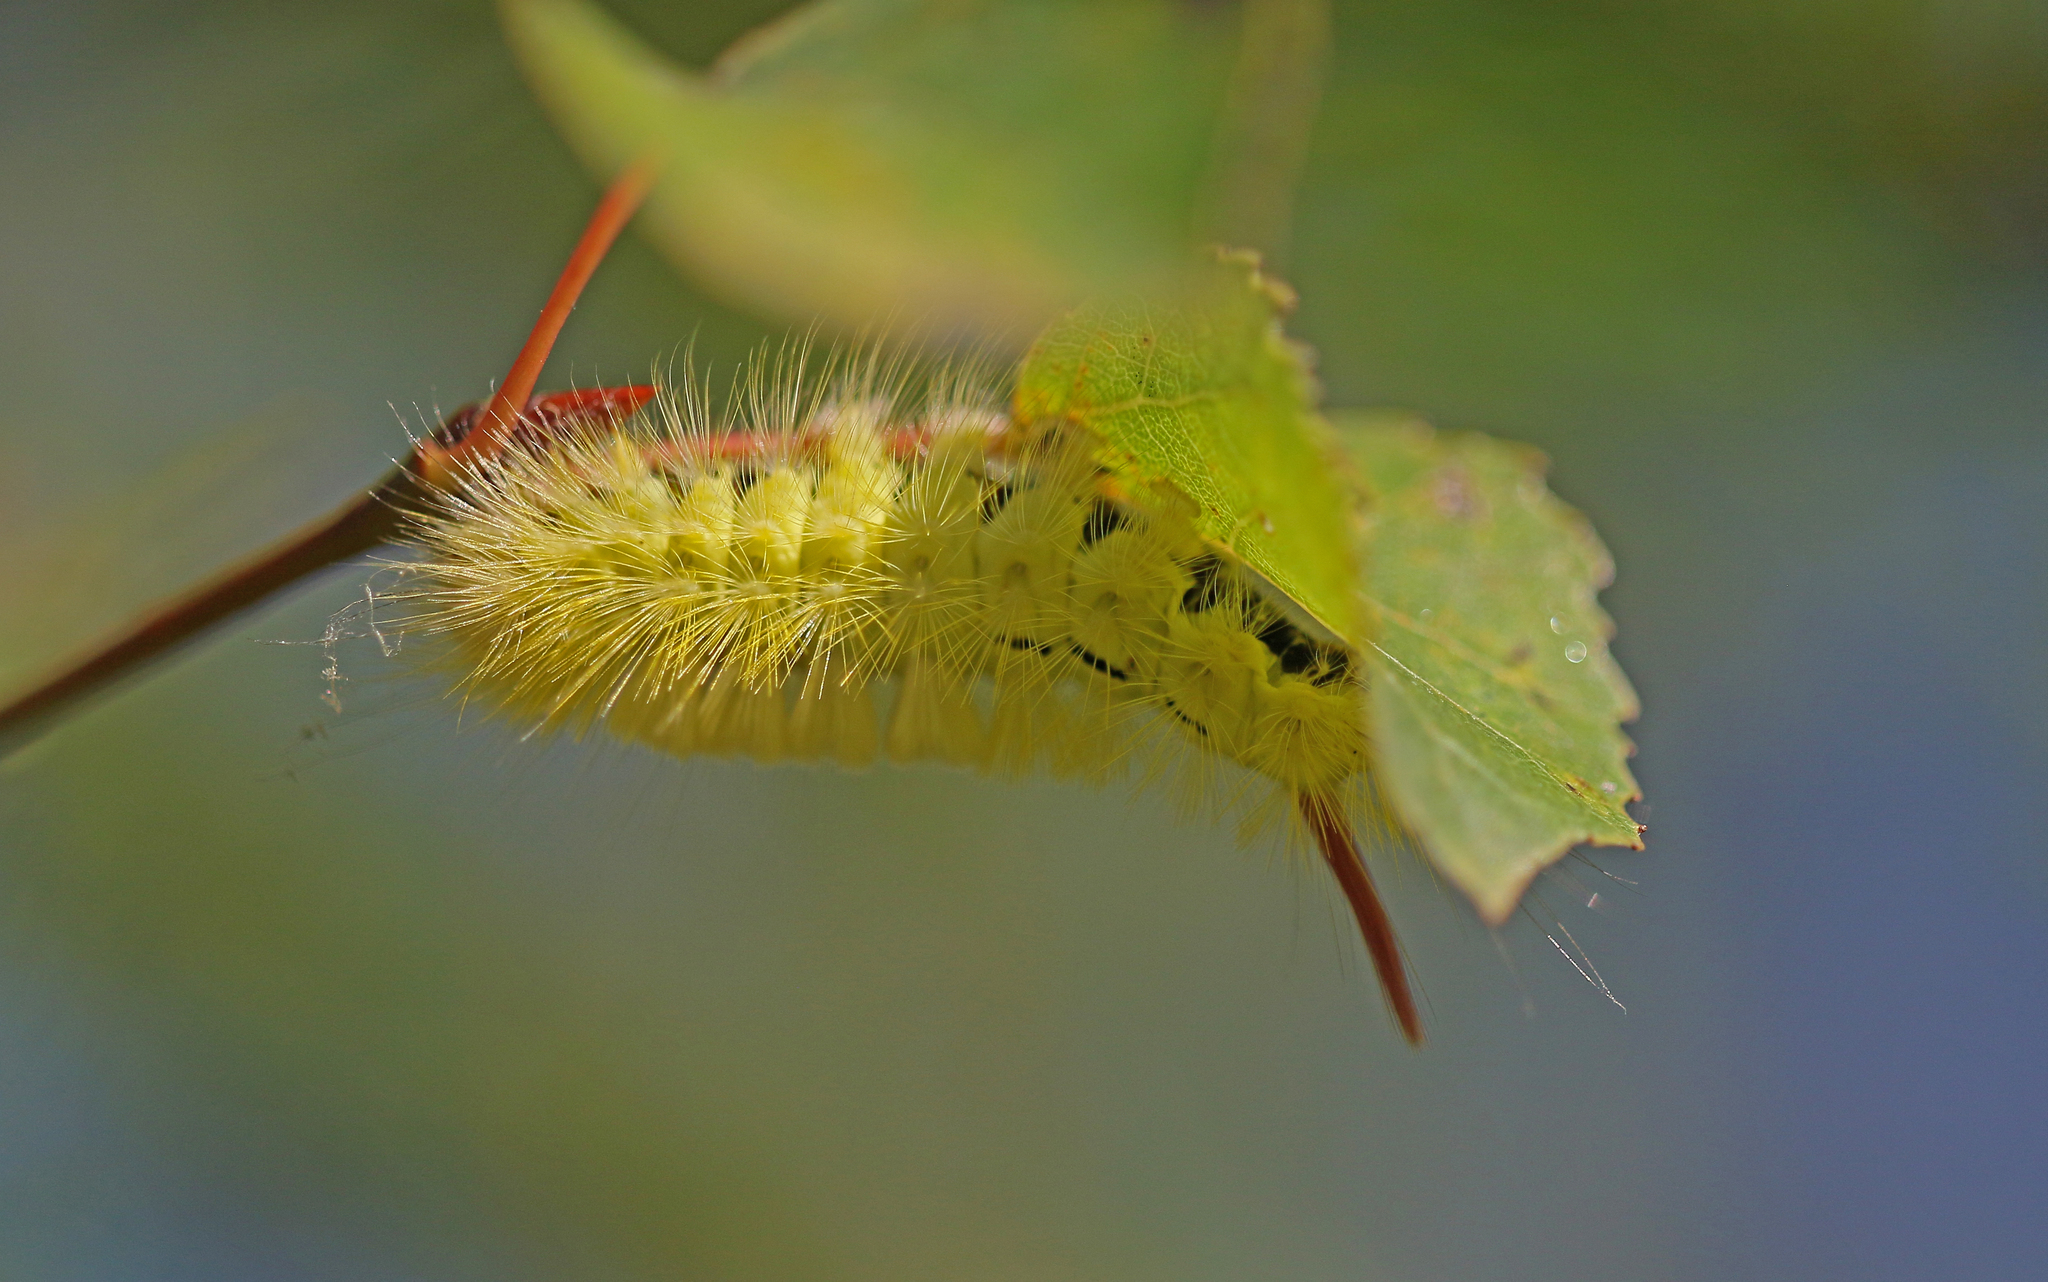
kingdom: Animalia
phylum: Arthropoda
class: Insecta
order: Lepidoptera
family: Erebidae
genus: Calliteara
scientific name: Calliteara pudibunda
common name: Pale tussock
